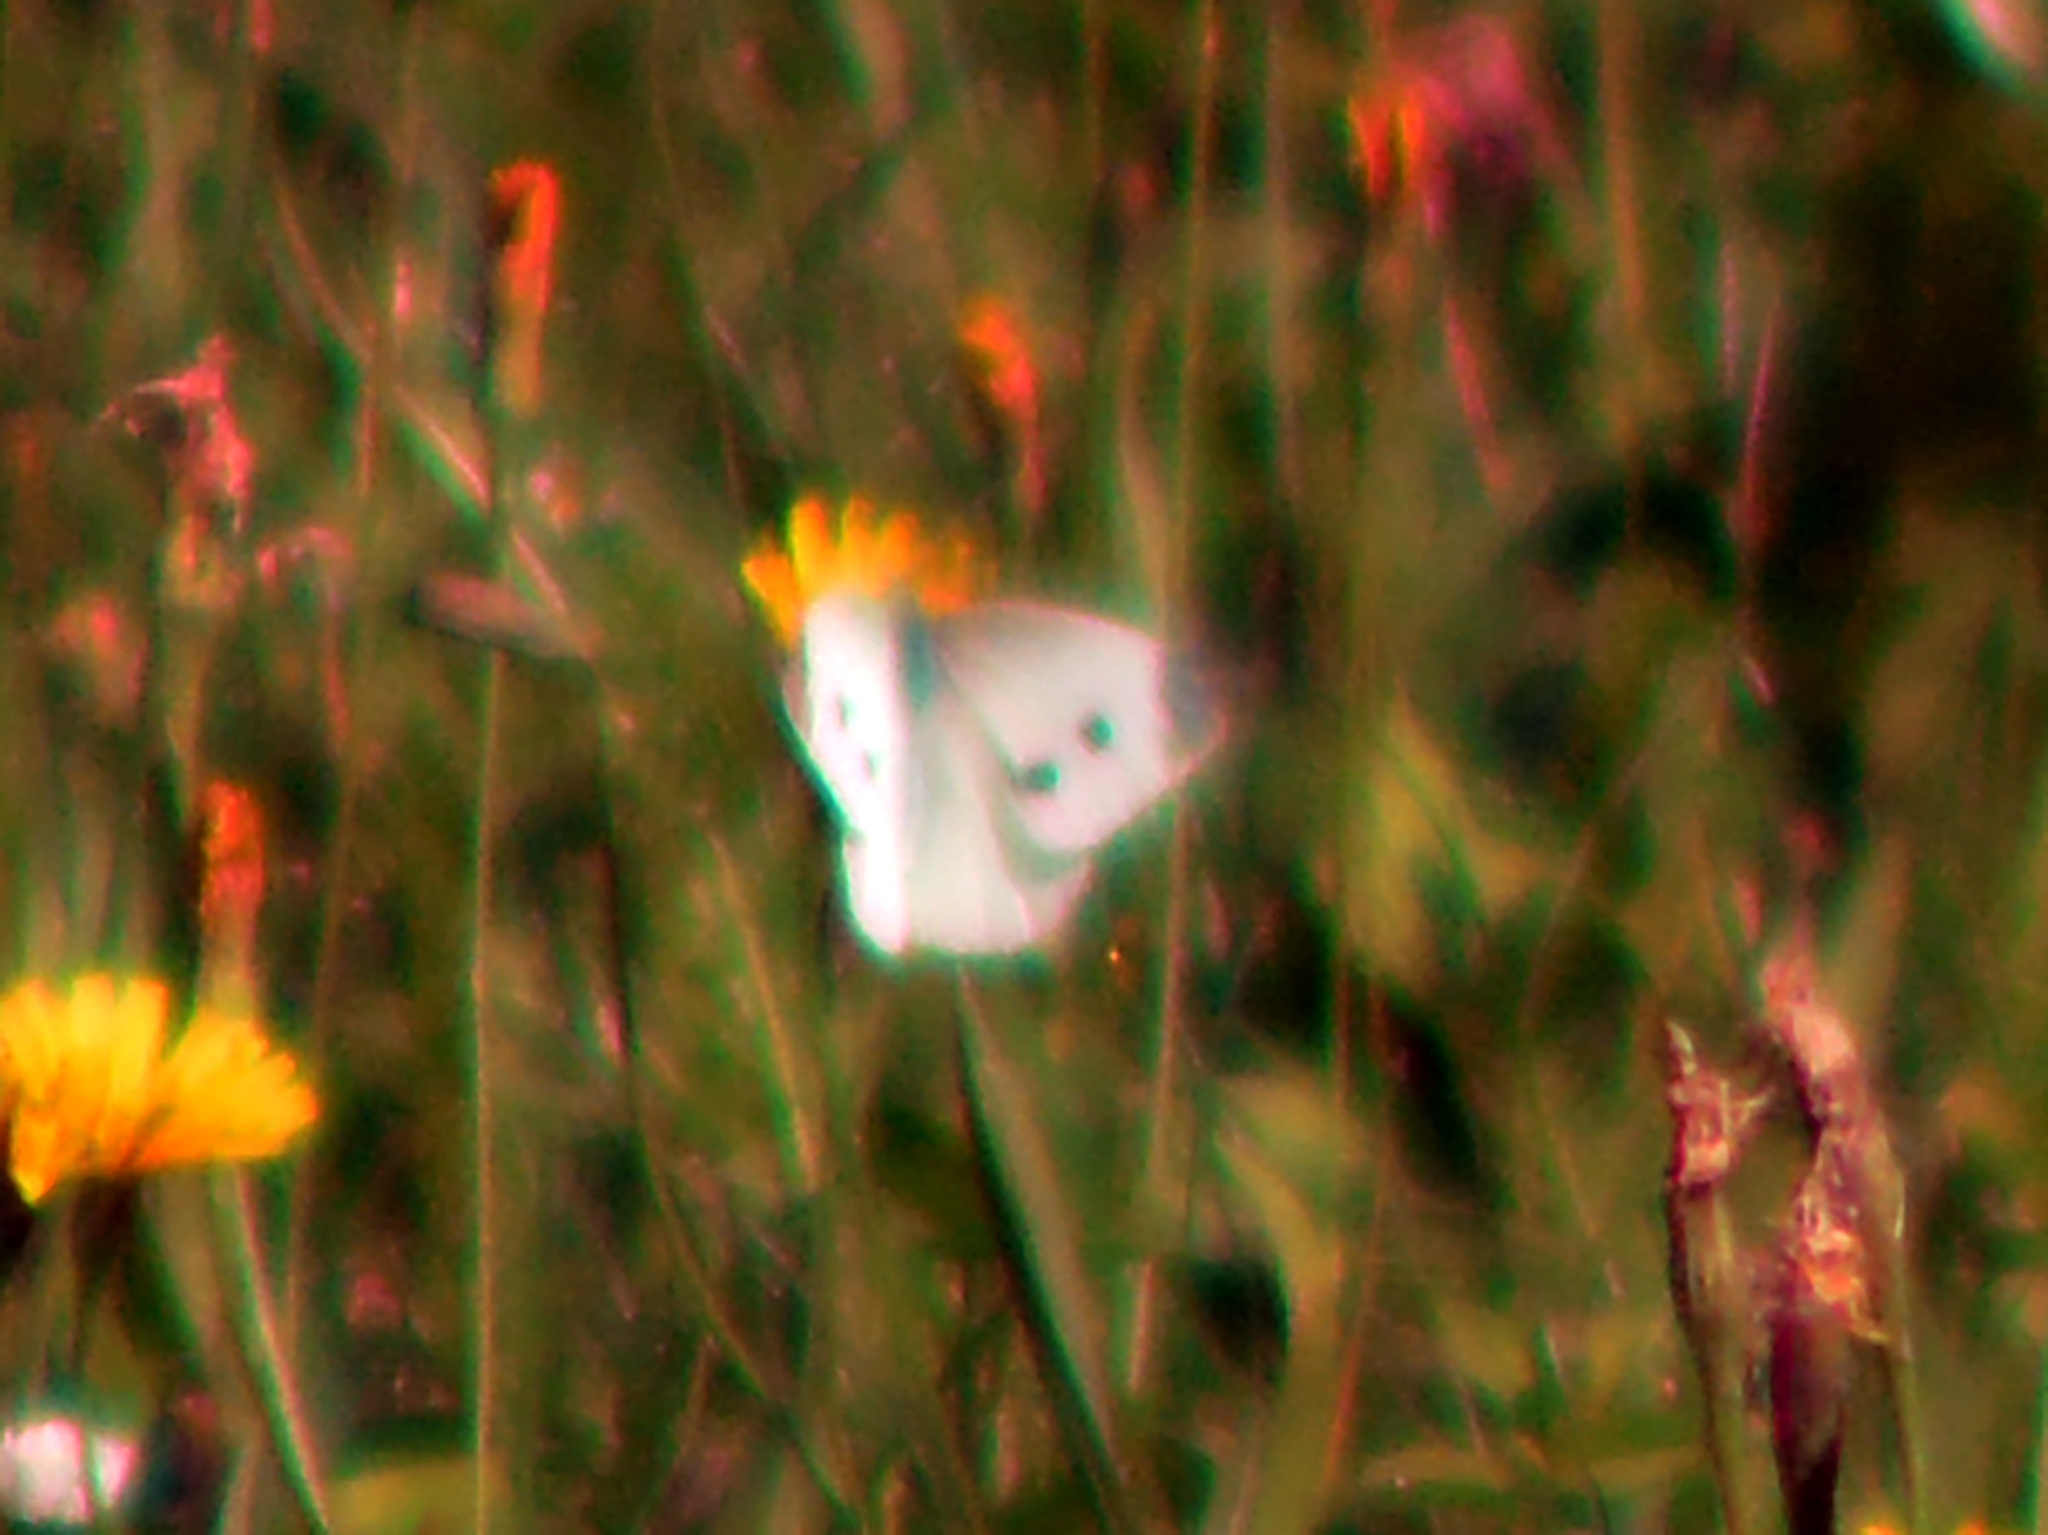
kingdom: Animalia
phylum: Arthropoda
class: Insecta
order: Lepidoptera
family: Pieridae
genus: Pieris
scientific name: Pieris rapae
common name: Small white
